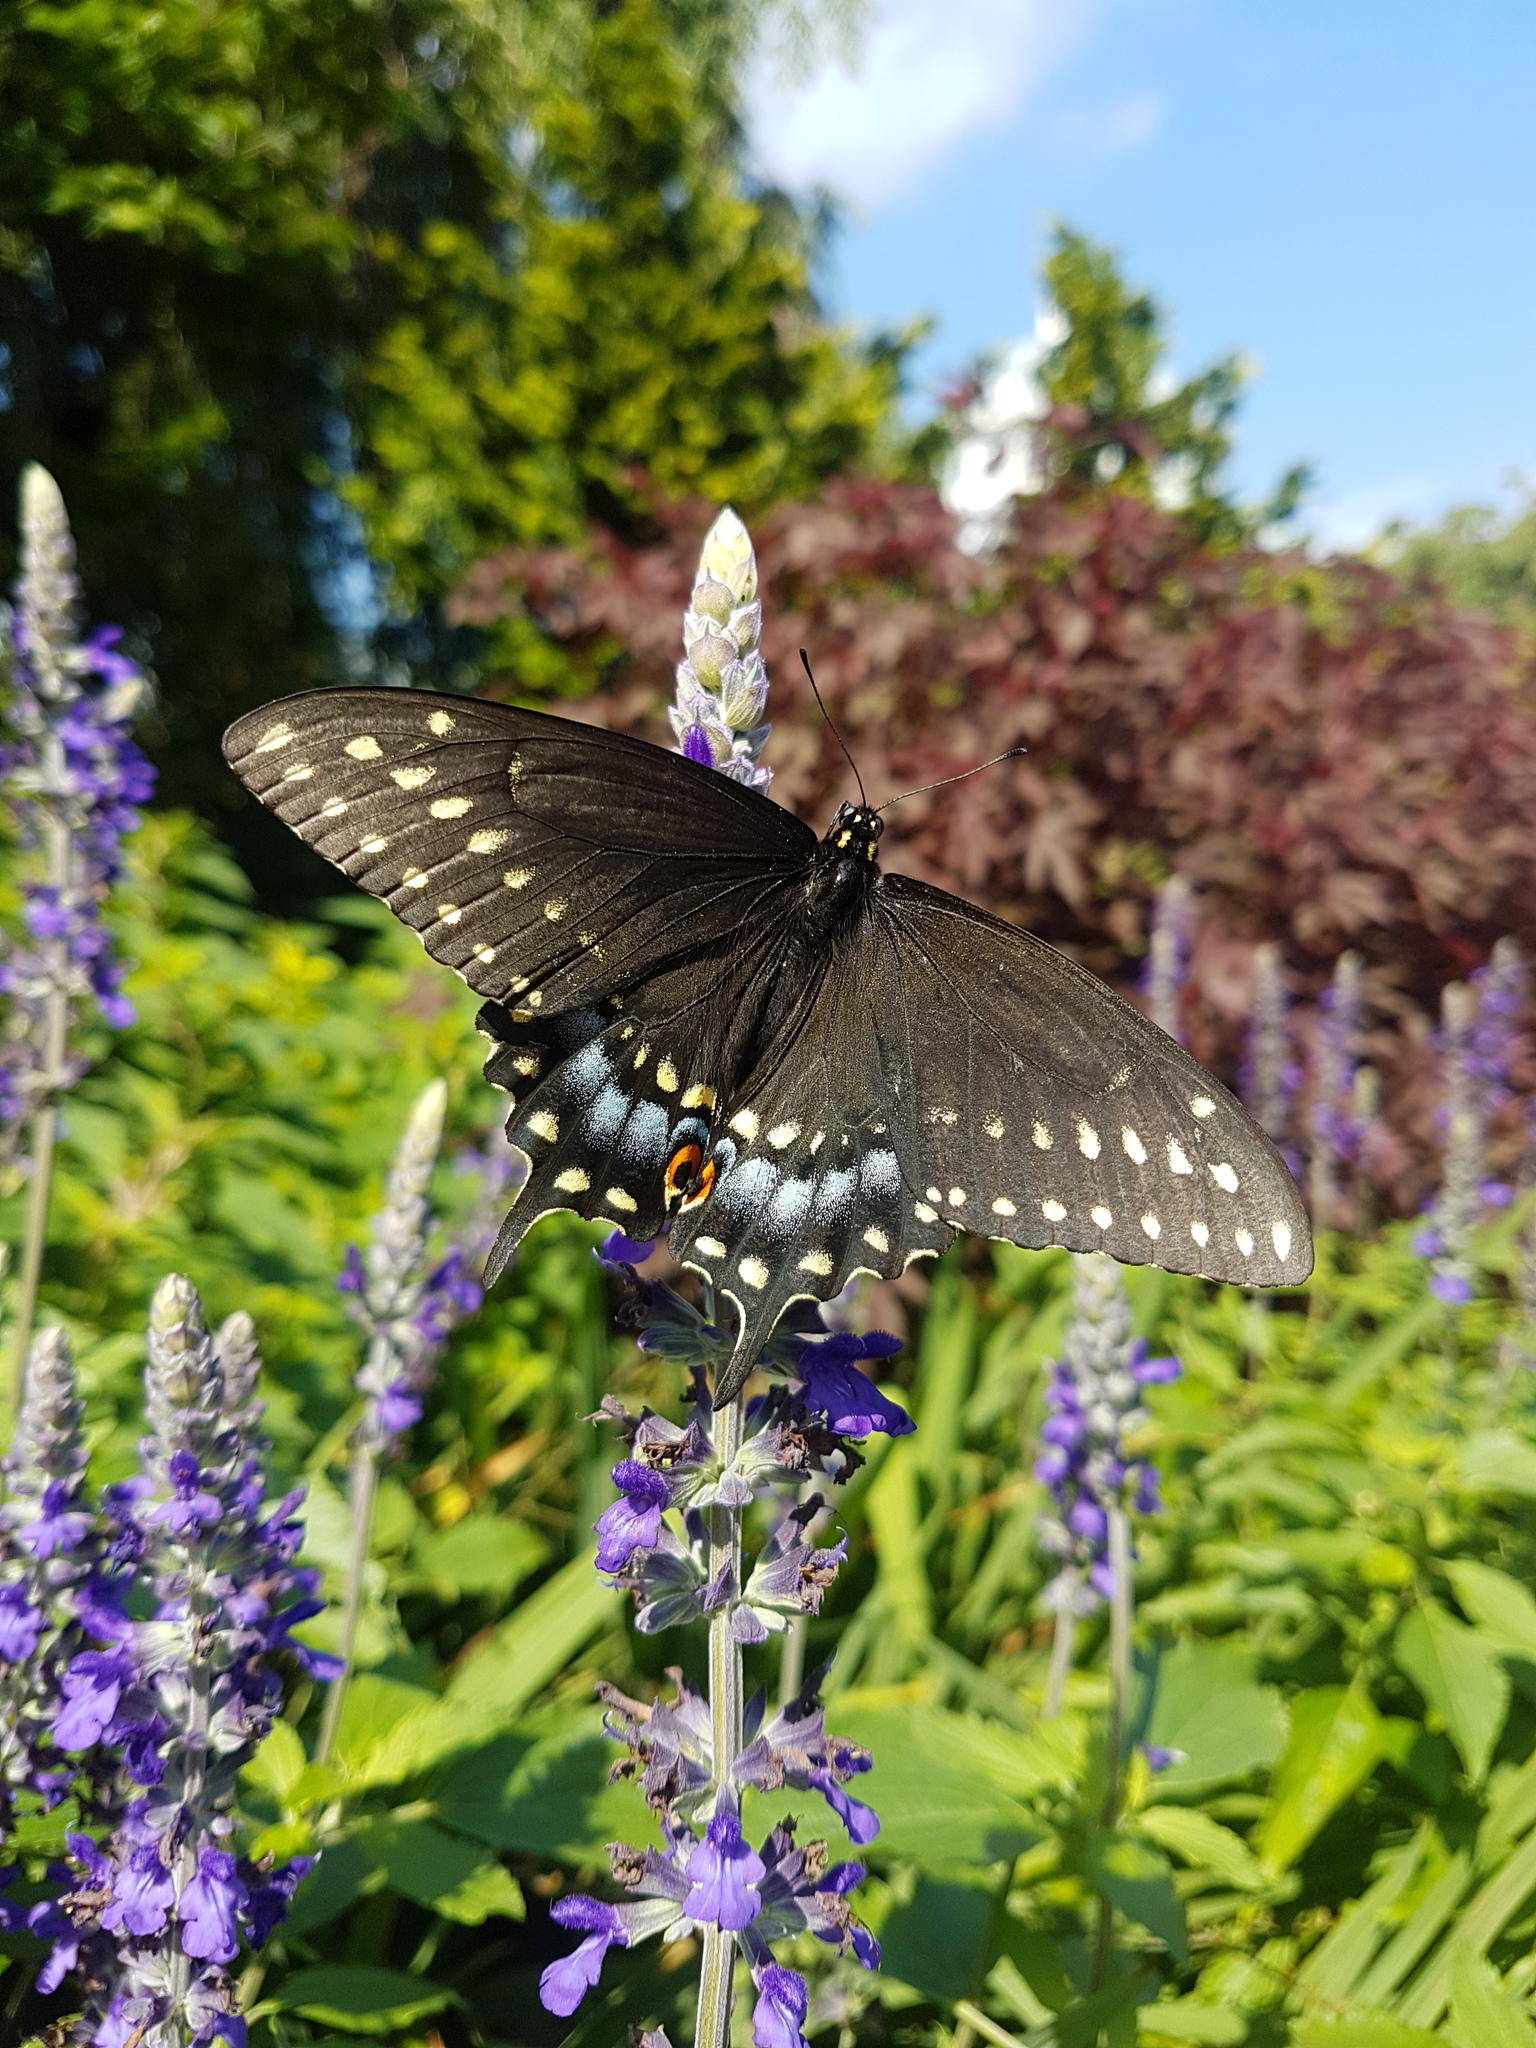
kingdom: Animalia
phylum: Arthropoda
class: Insecta
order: Lepidoptera
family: Papilionidae
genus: Papilio
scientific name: Papilio polyxenes
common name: Black swallowtail
